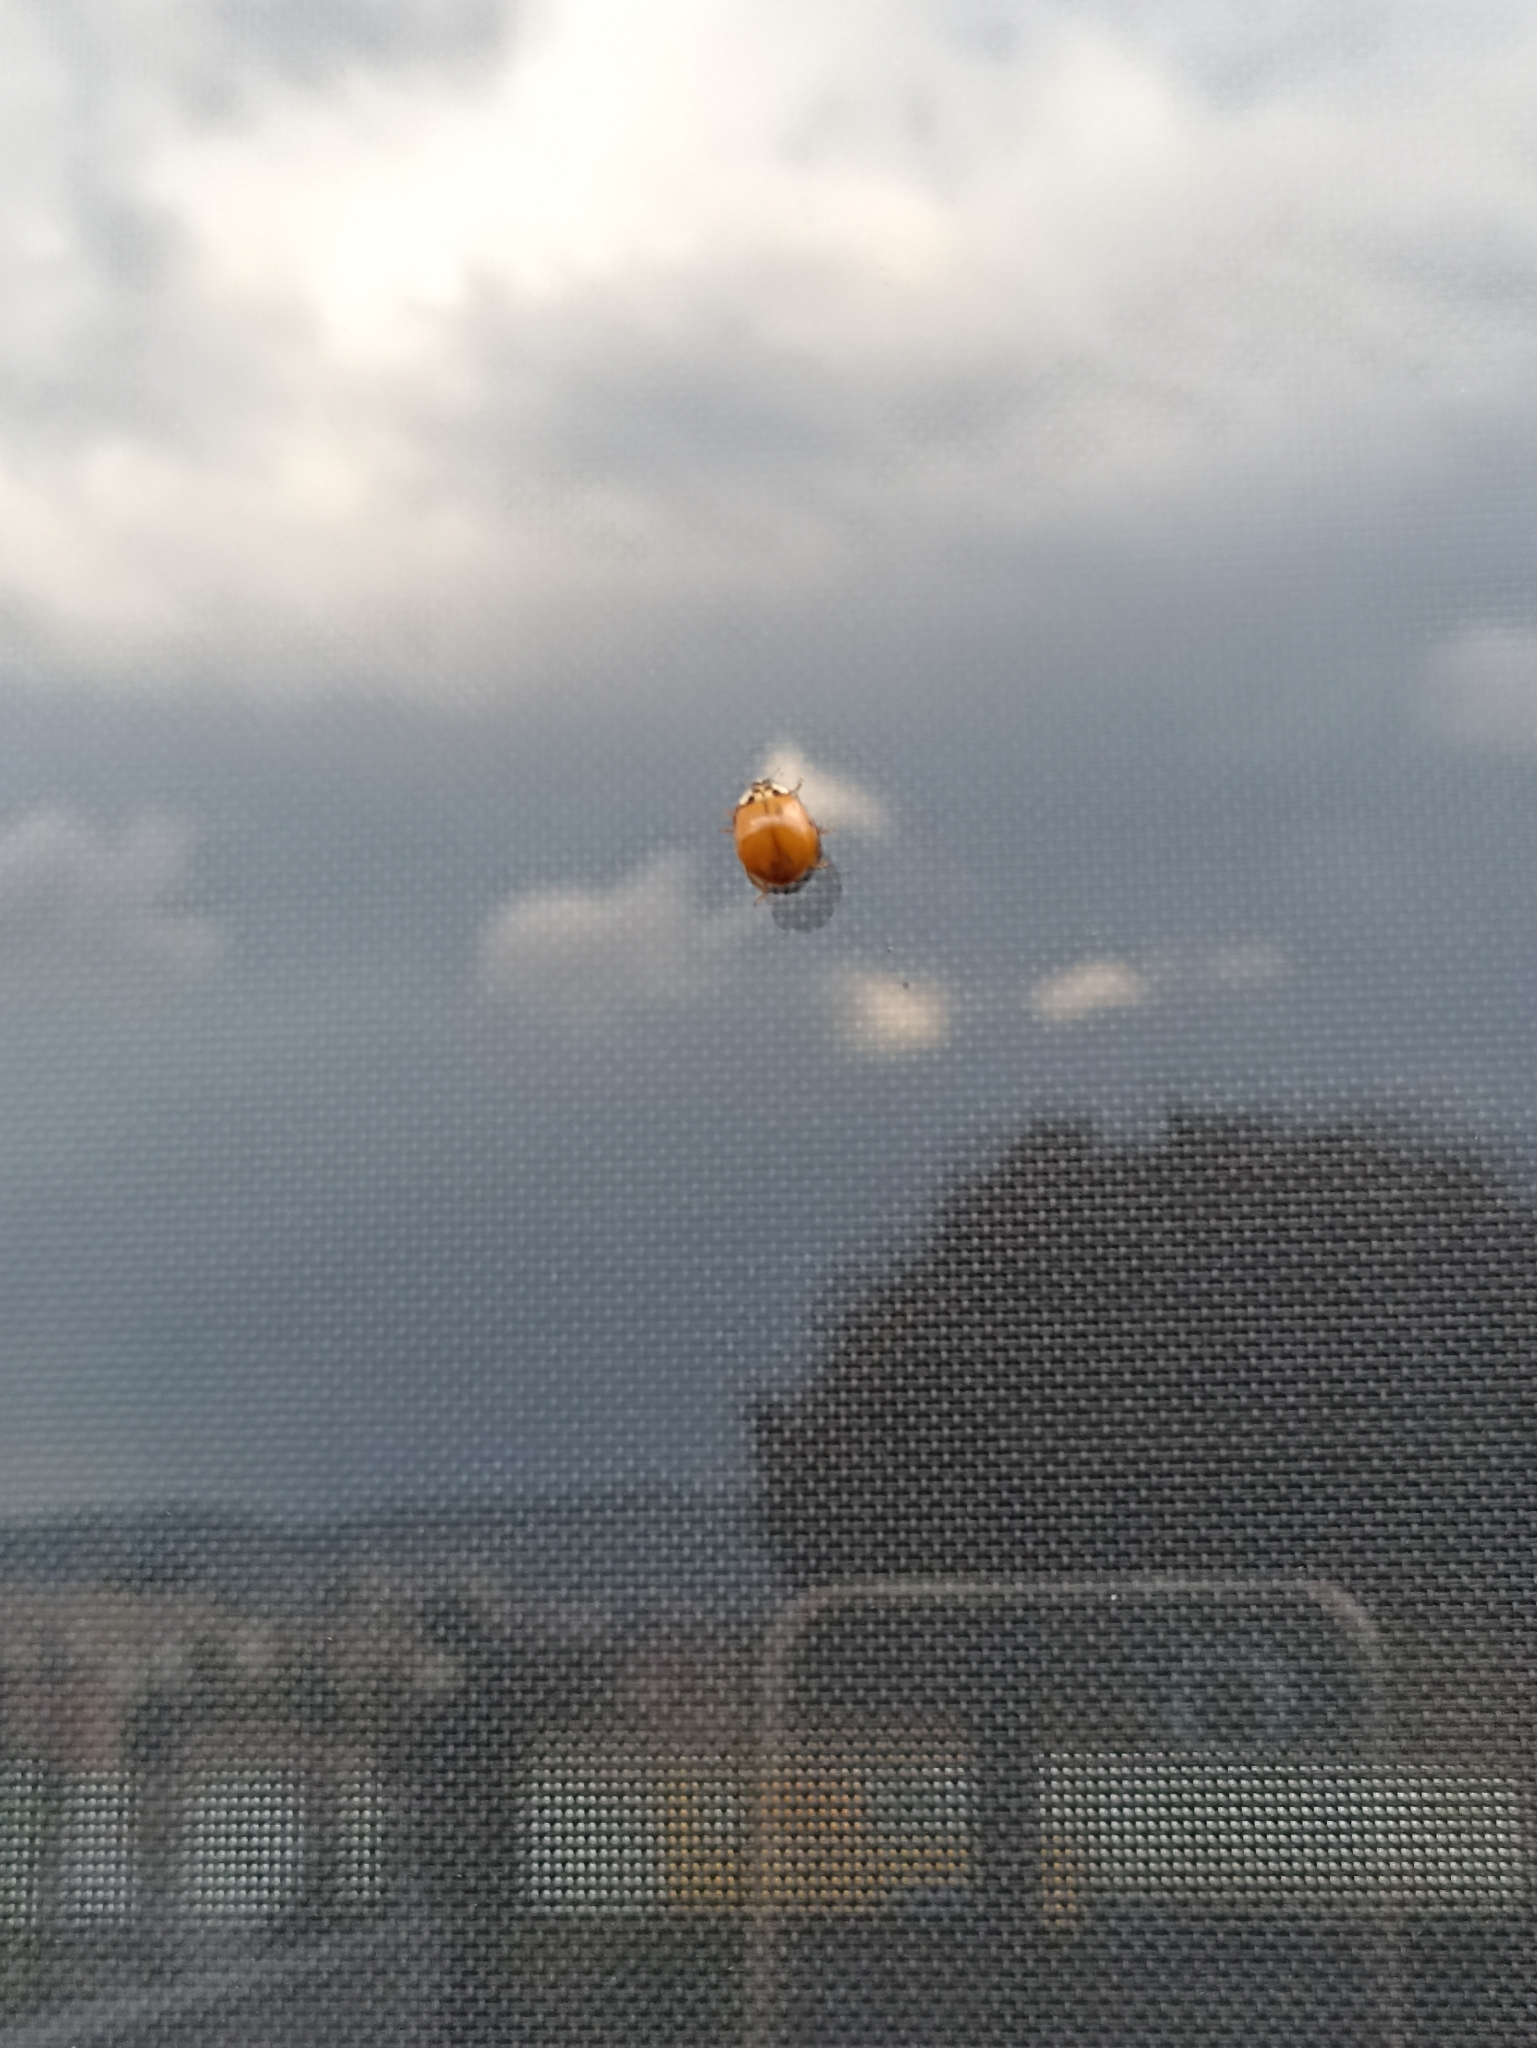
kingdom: Animalia
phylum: Arthropoda
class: Insecta
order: Coleoptera
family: Coccinellidae
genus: Harmonia
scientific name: Harmonia axyridis
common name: Harlequin ladybird
